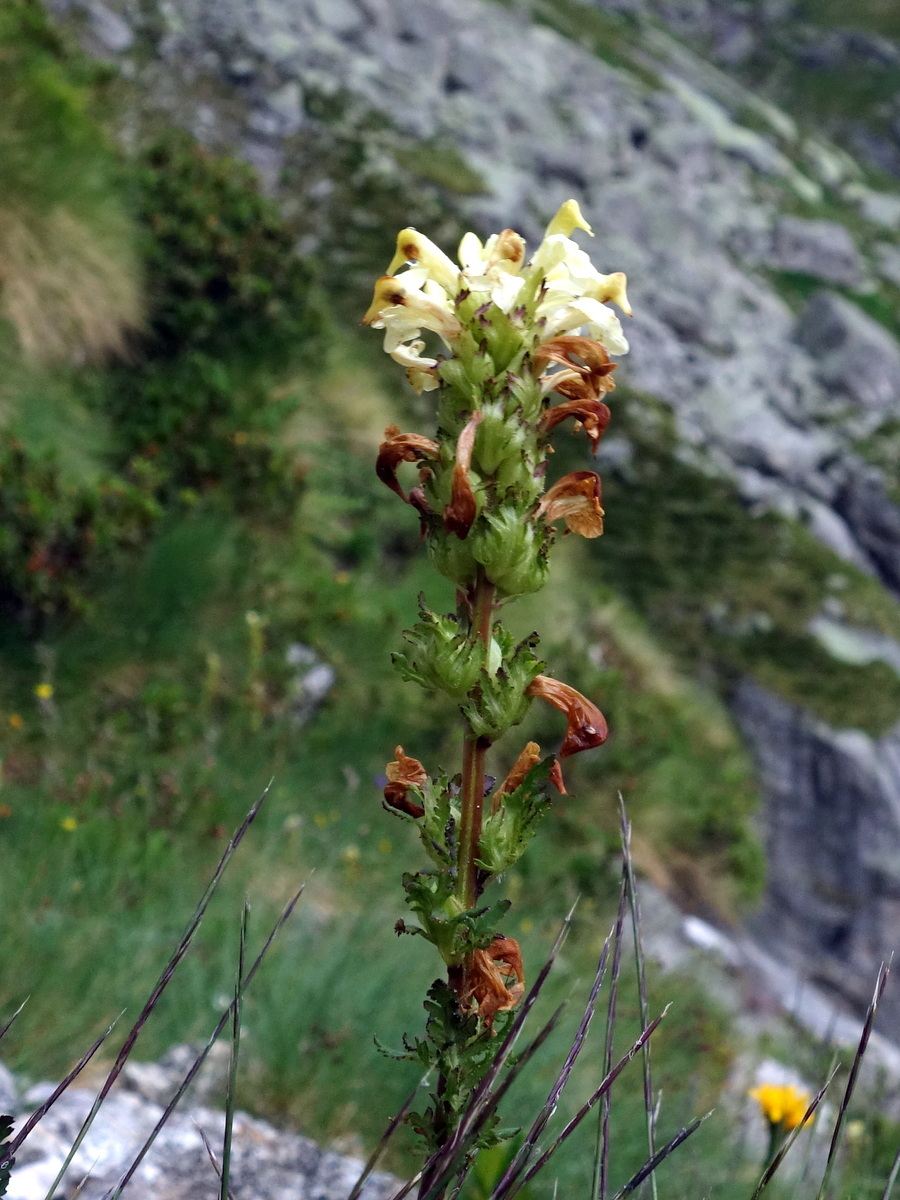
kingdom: Plantae
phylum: Tracheophyta
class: Magnoliopsida
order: Lamiales
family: Orobanchaceae
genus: Pedicularis
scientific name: Pedicularis tuberosa
